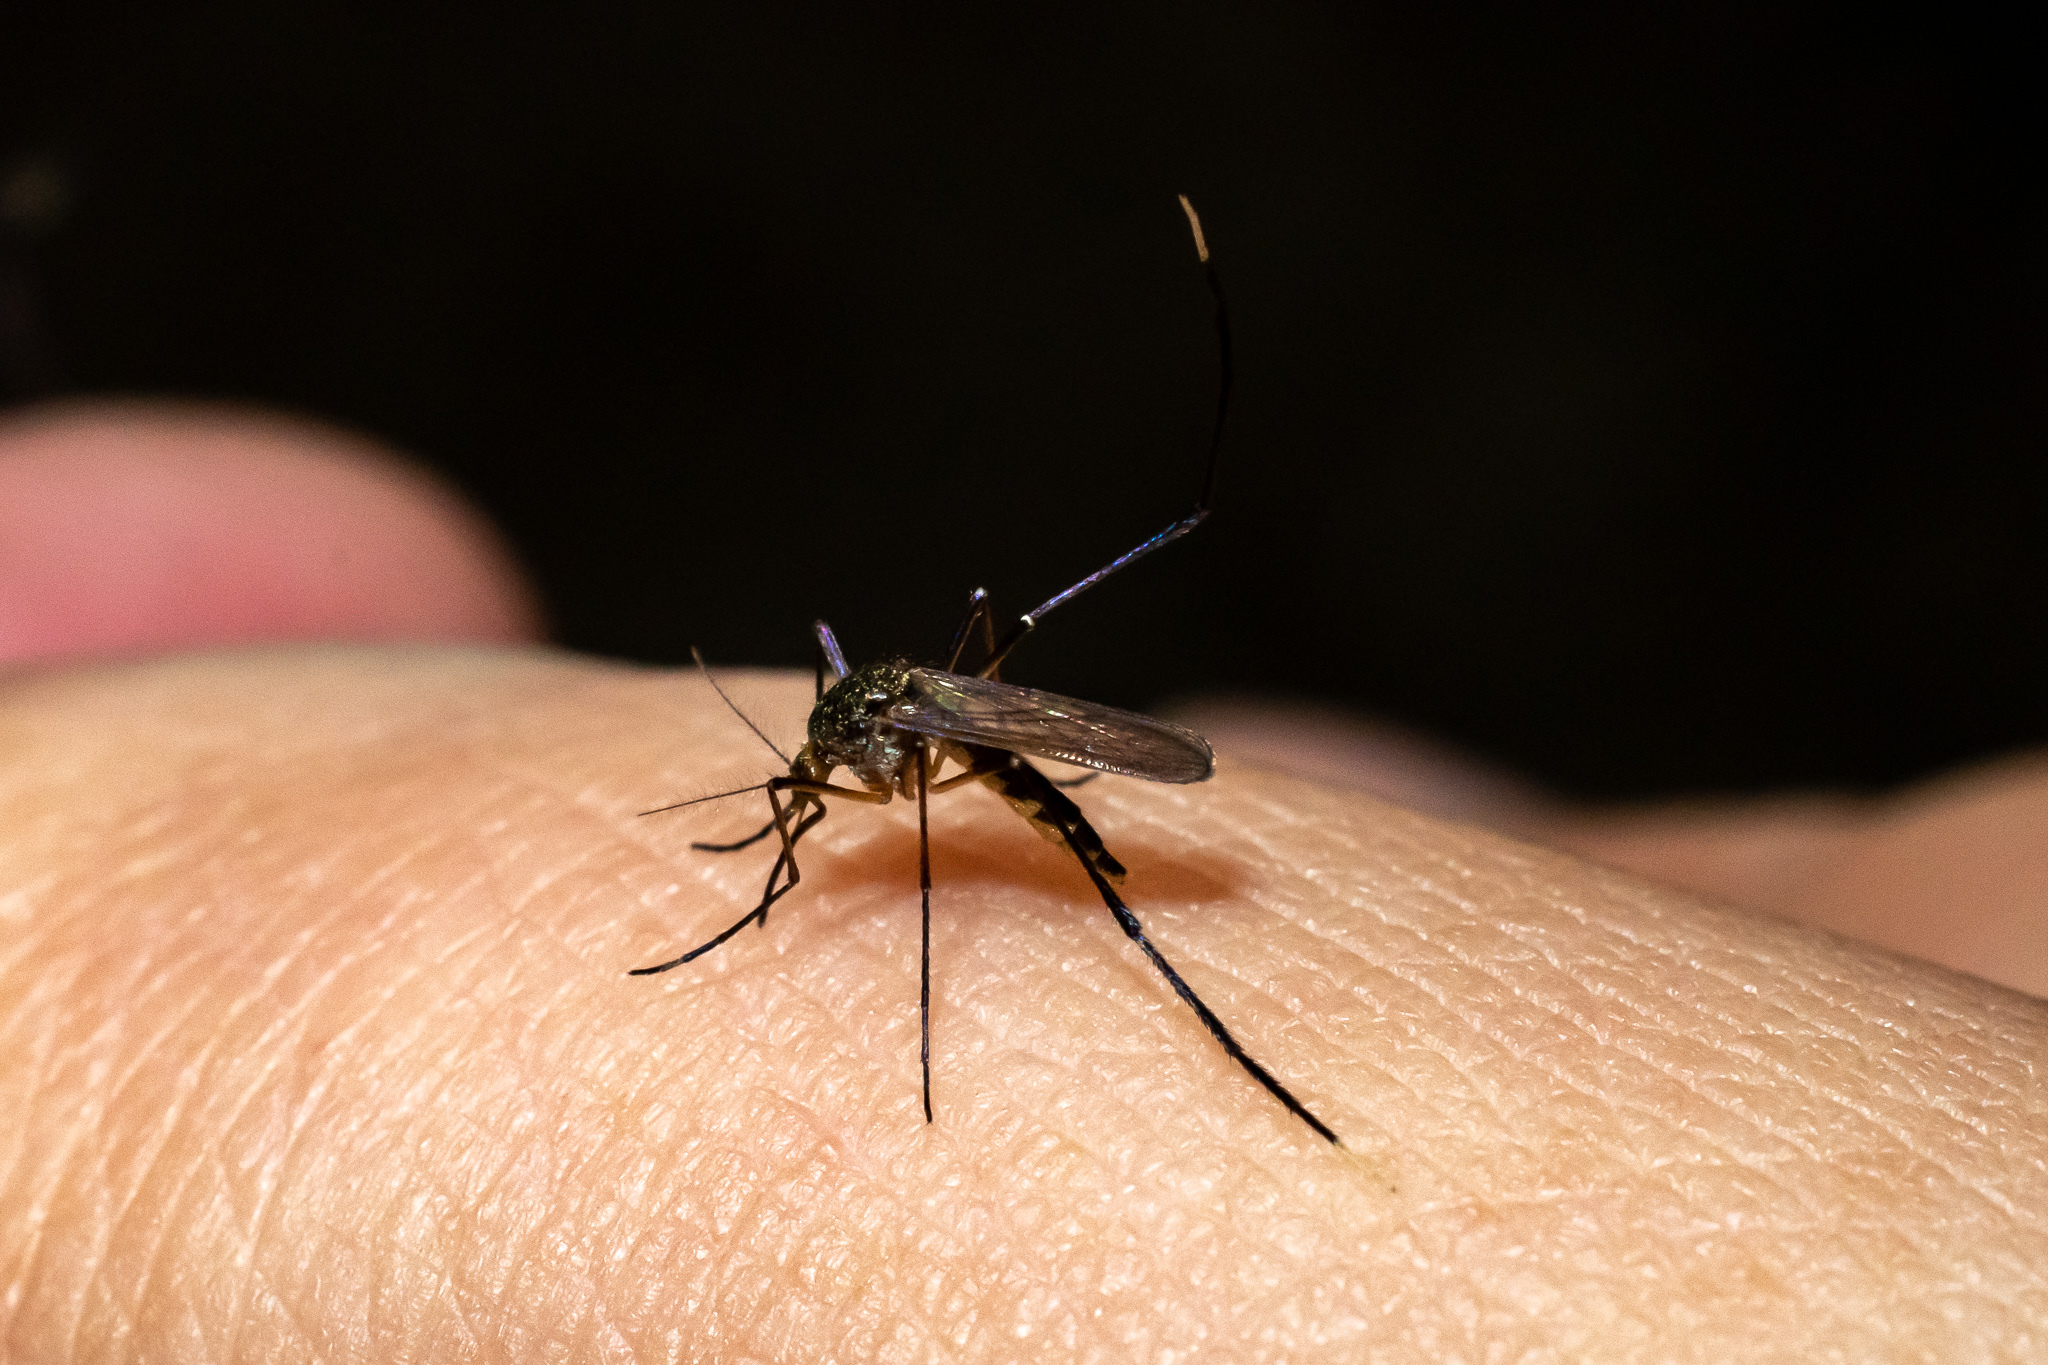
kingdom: Animalia
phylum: Arthropoda
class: Insecta
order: Diptera
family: Culicidae
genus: Psorophora
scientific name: Psorophora ferox
